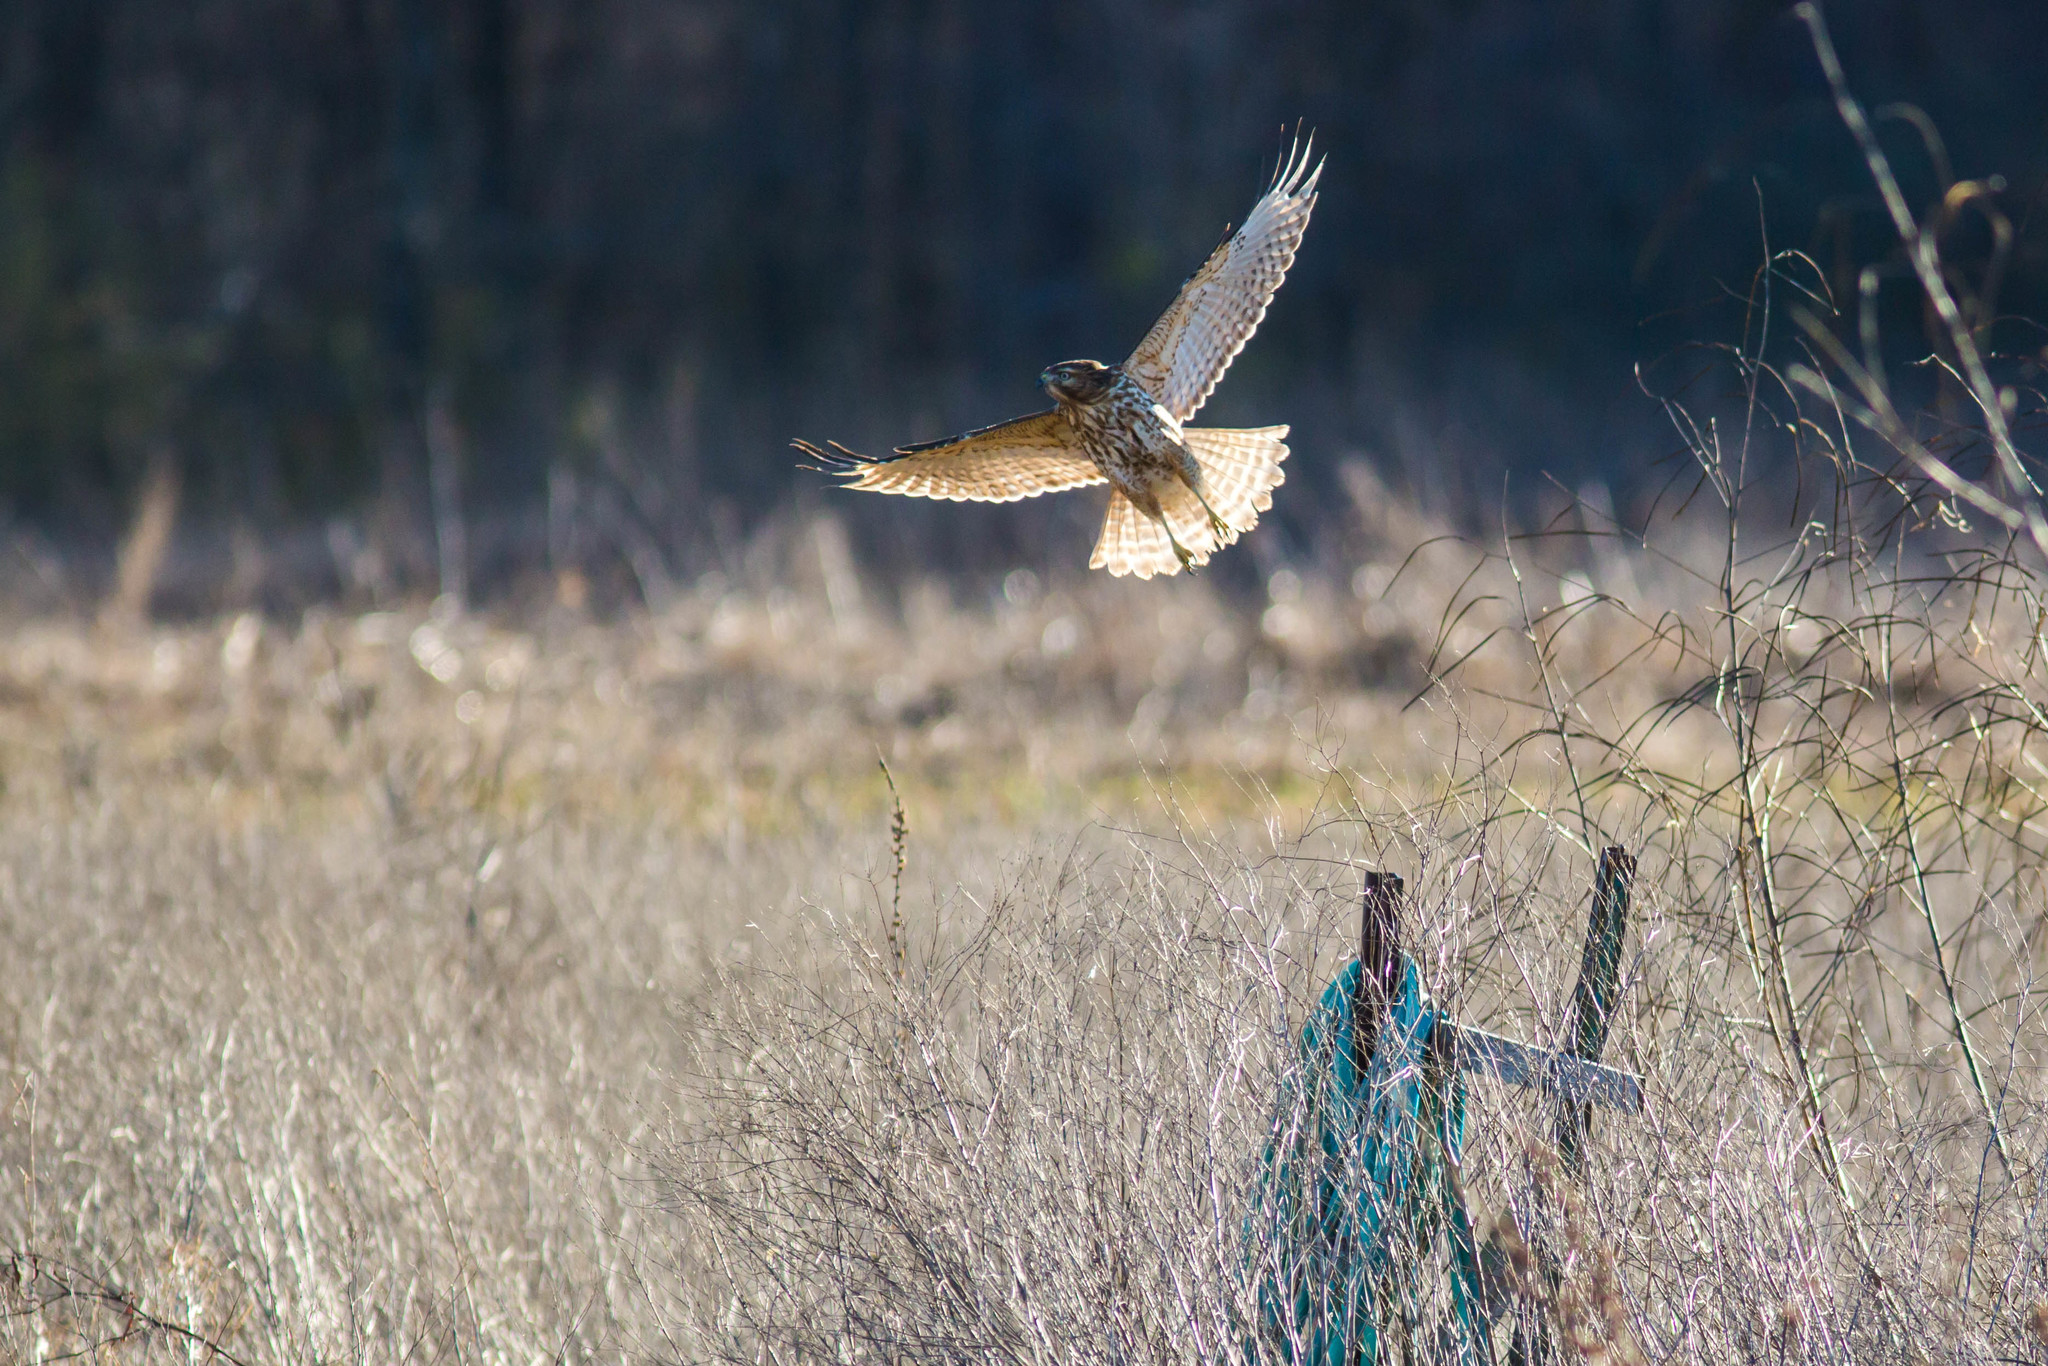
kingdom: Animalia
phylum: Chordata
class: Aves
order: Accipitriformes
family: Accipitridae
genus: Buteo
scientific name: Buteo lineatus
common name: Red-shouldered hawk
